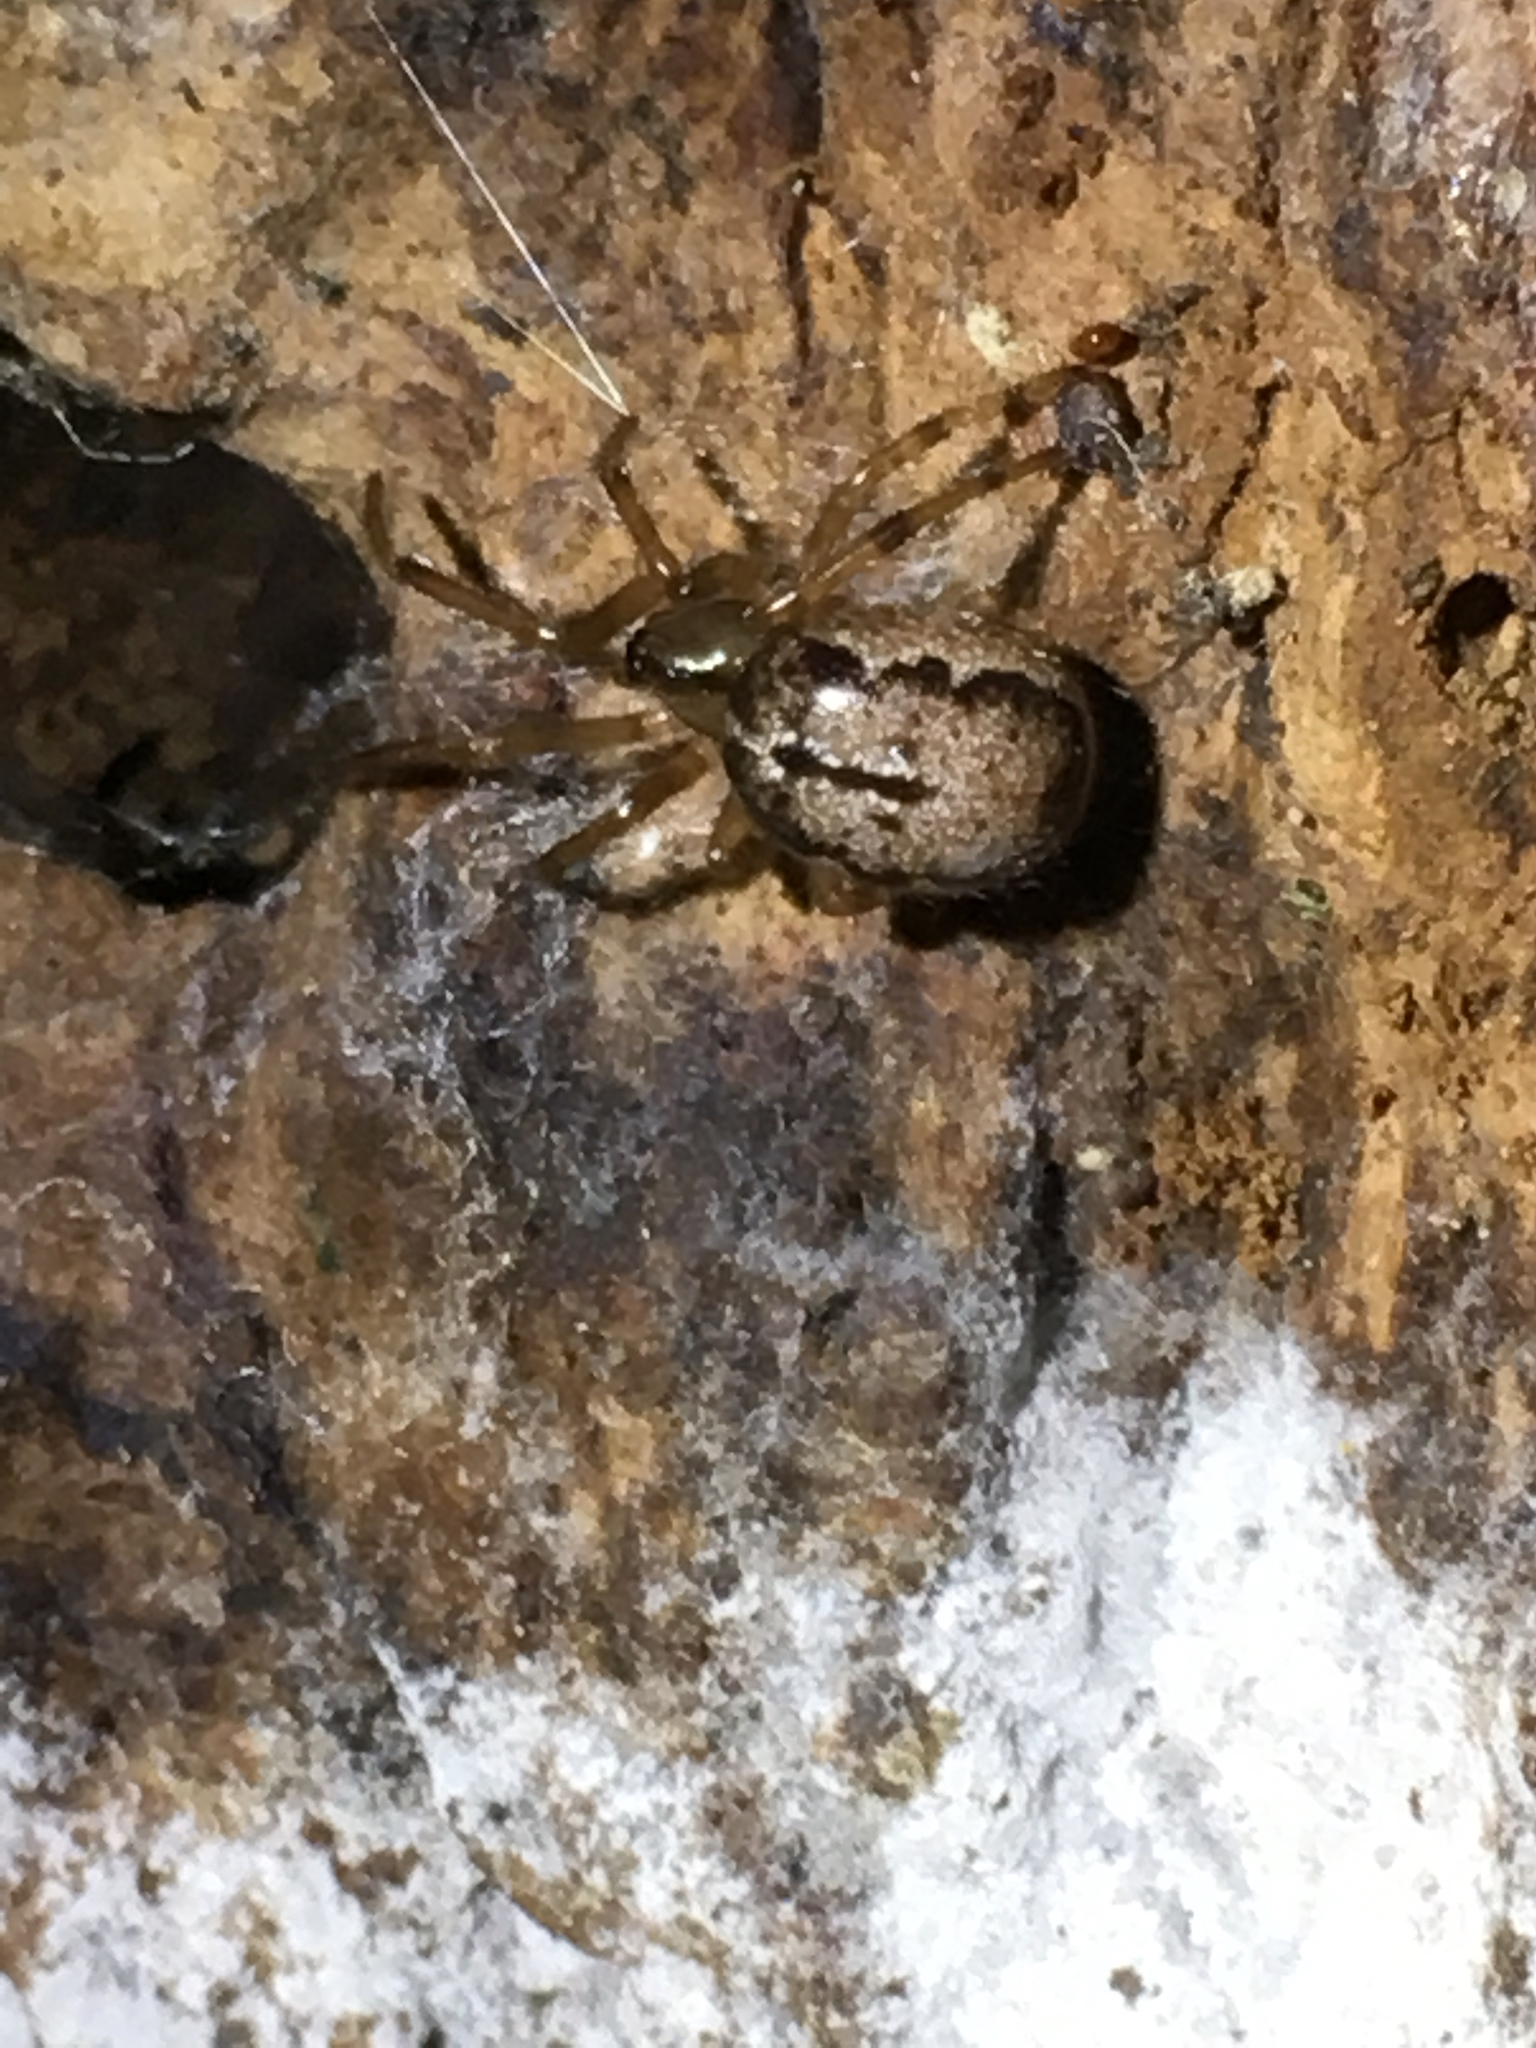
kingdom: Animalia
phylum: Arthropoda
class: Arachnida
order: Araneae
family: Theridiidae
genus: Enoplognatha
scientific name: Enoplognatha marmorata
